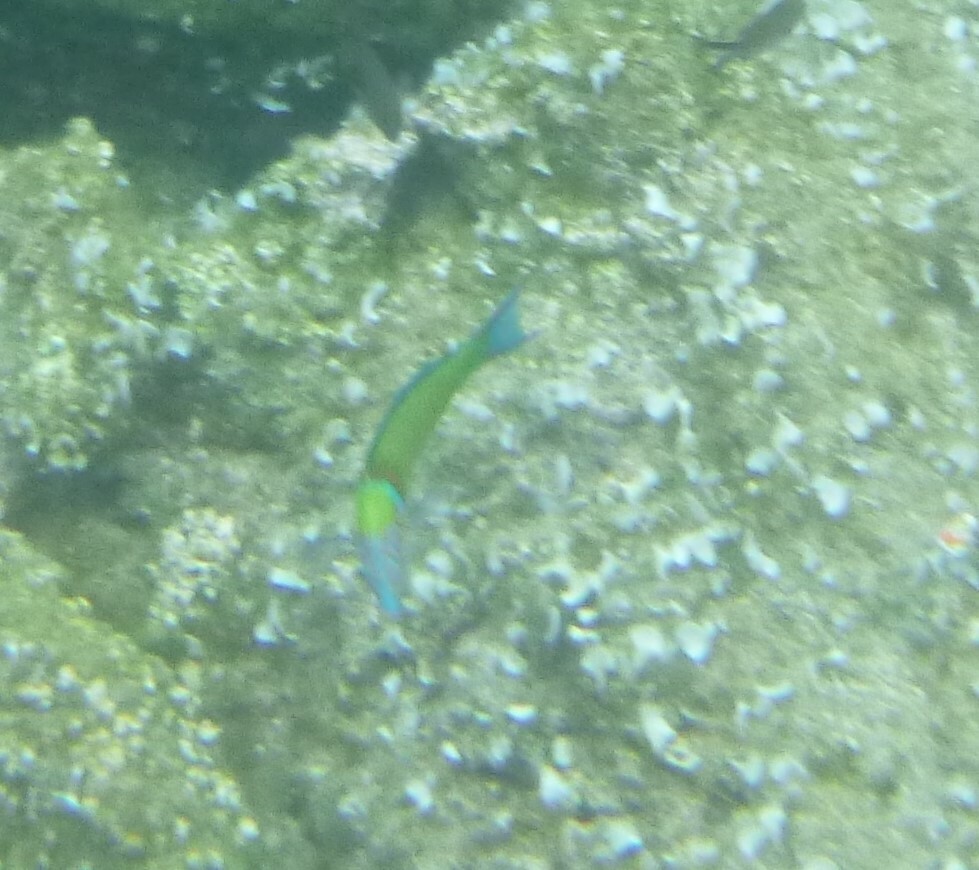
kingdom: Animalia
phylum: Chordata
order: Perciformes
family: Labridae
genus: Thalassoma
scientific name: Thalassoma pavo
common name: Ornate wrasse
